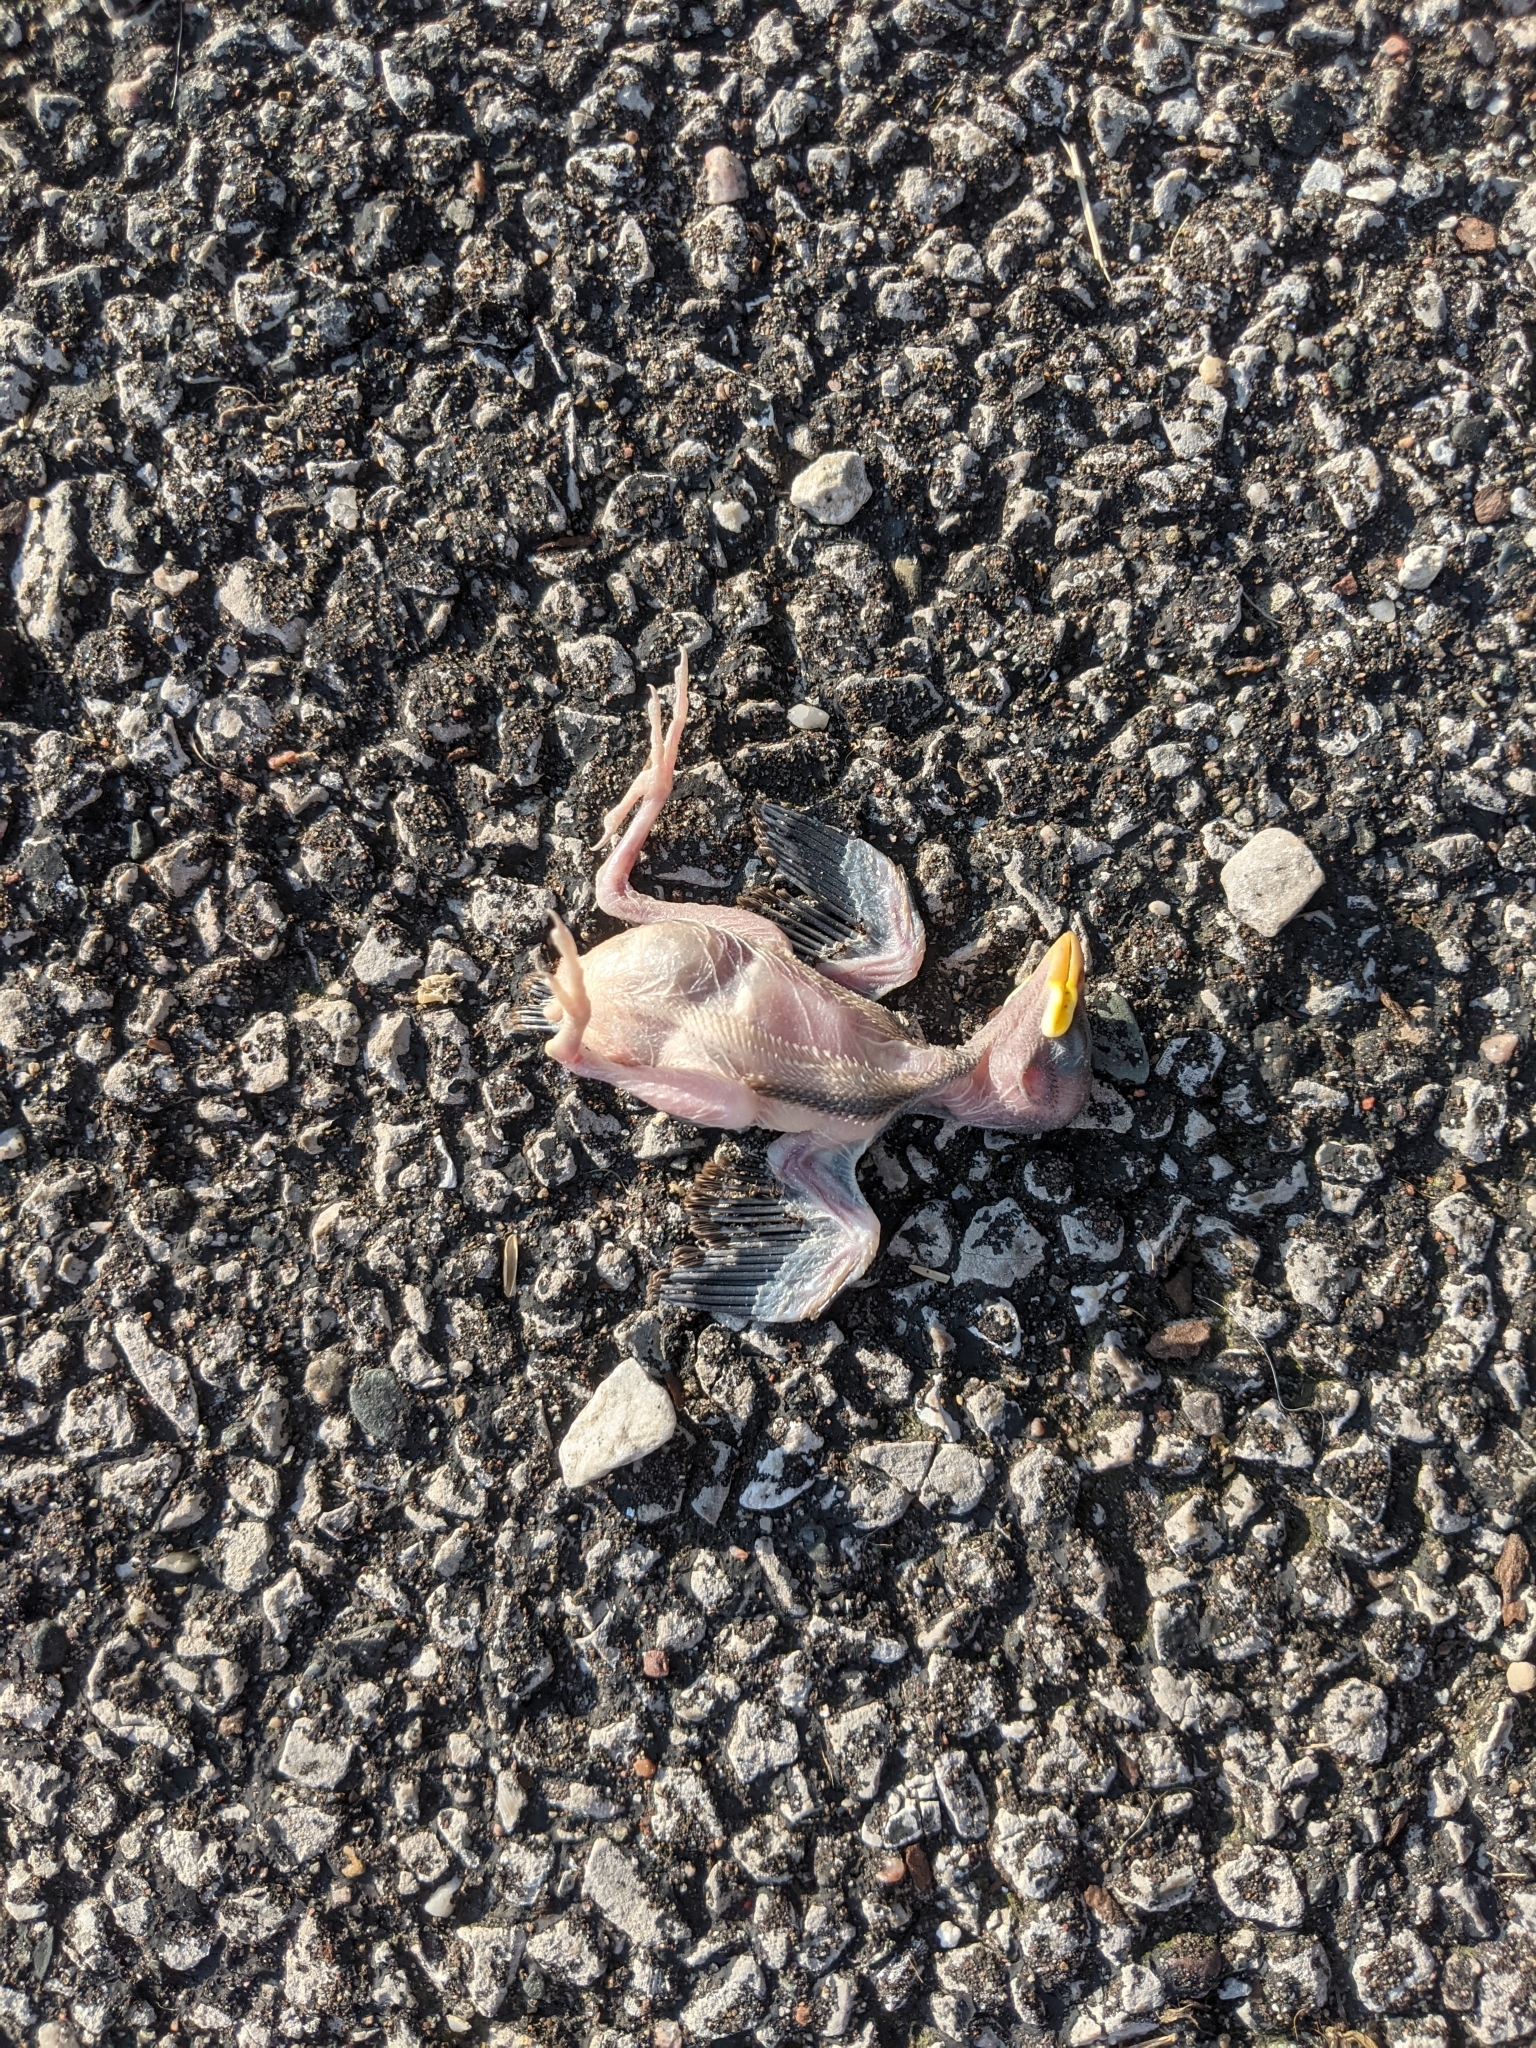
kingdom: Animalia
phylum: Chordata
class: Aves
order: Passeriformes
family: Passeridae
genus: Passer
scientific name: Passer domesticus
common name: House sparrow
